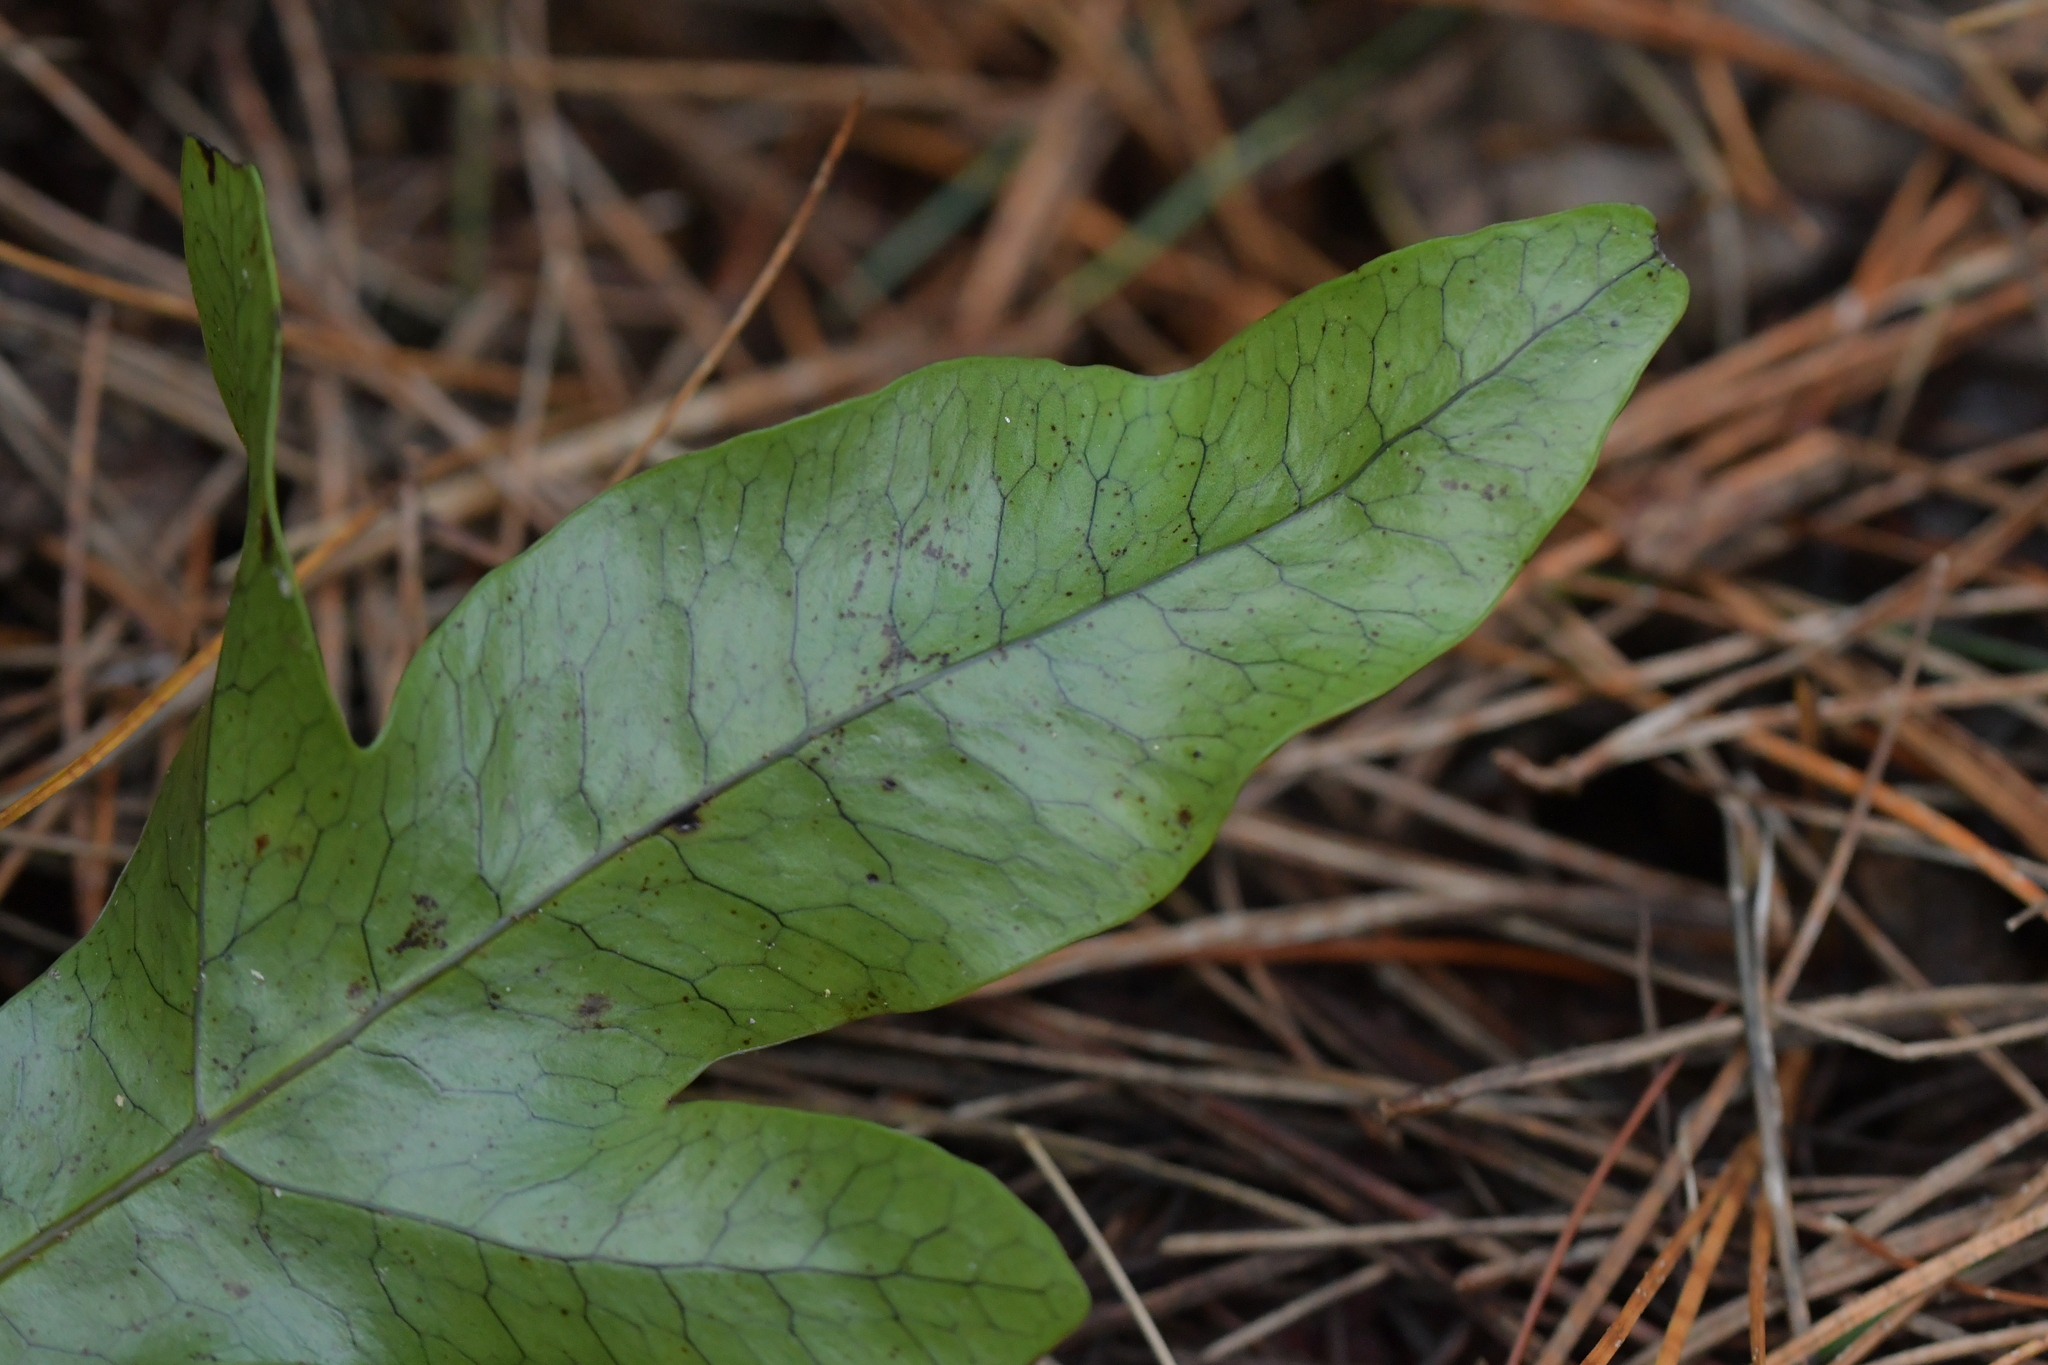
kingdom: Plantae
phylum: Tracheophyta
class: Polypodiopsida
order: Polypodiales
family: Polypodiaceae
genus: Lecanopteris
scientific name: Lecanopteris pustulata
